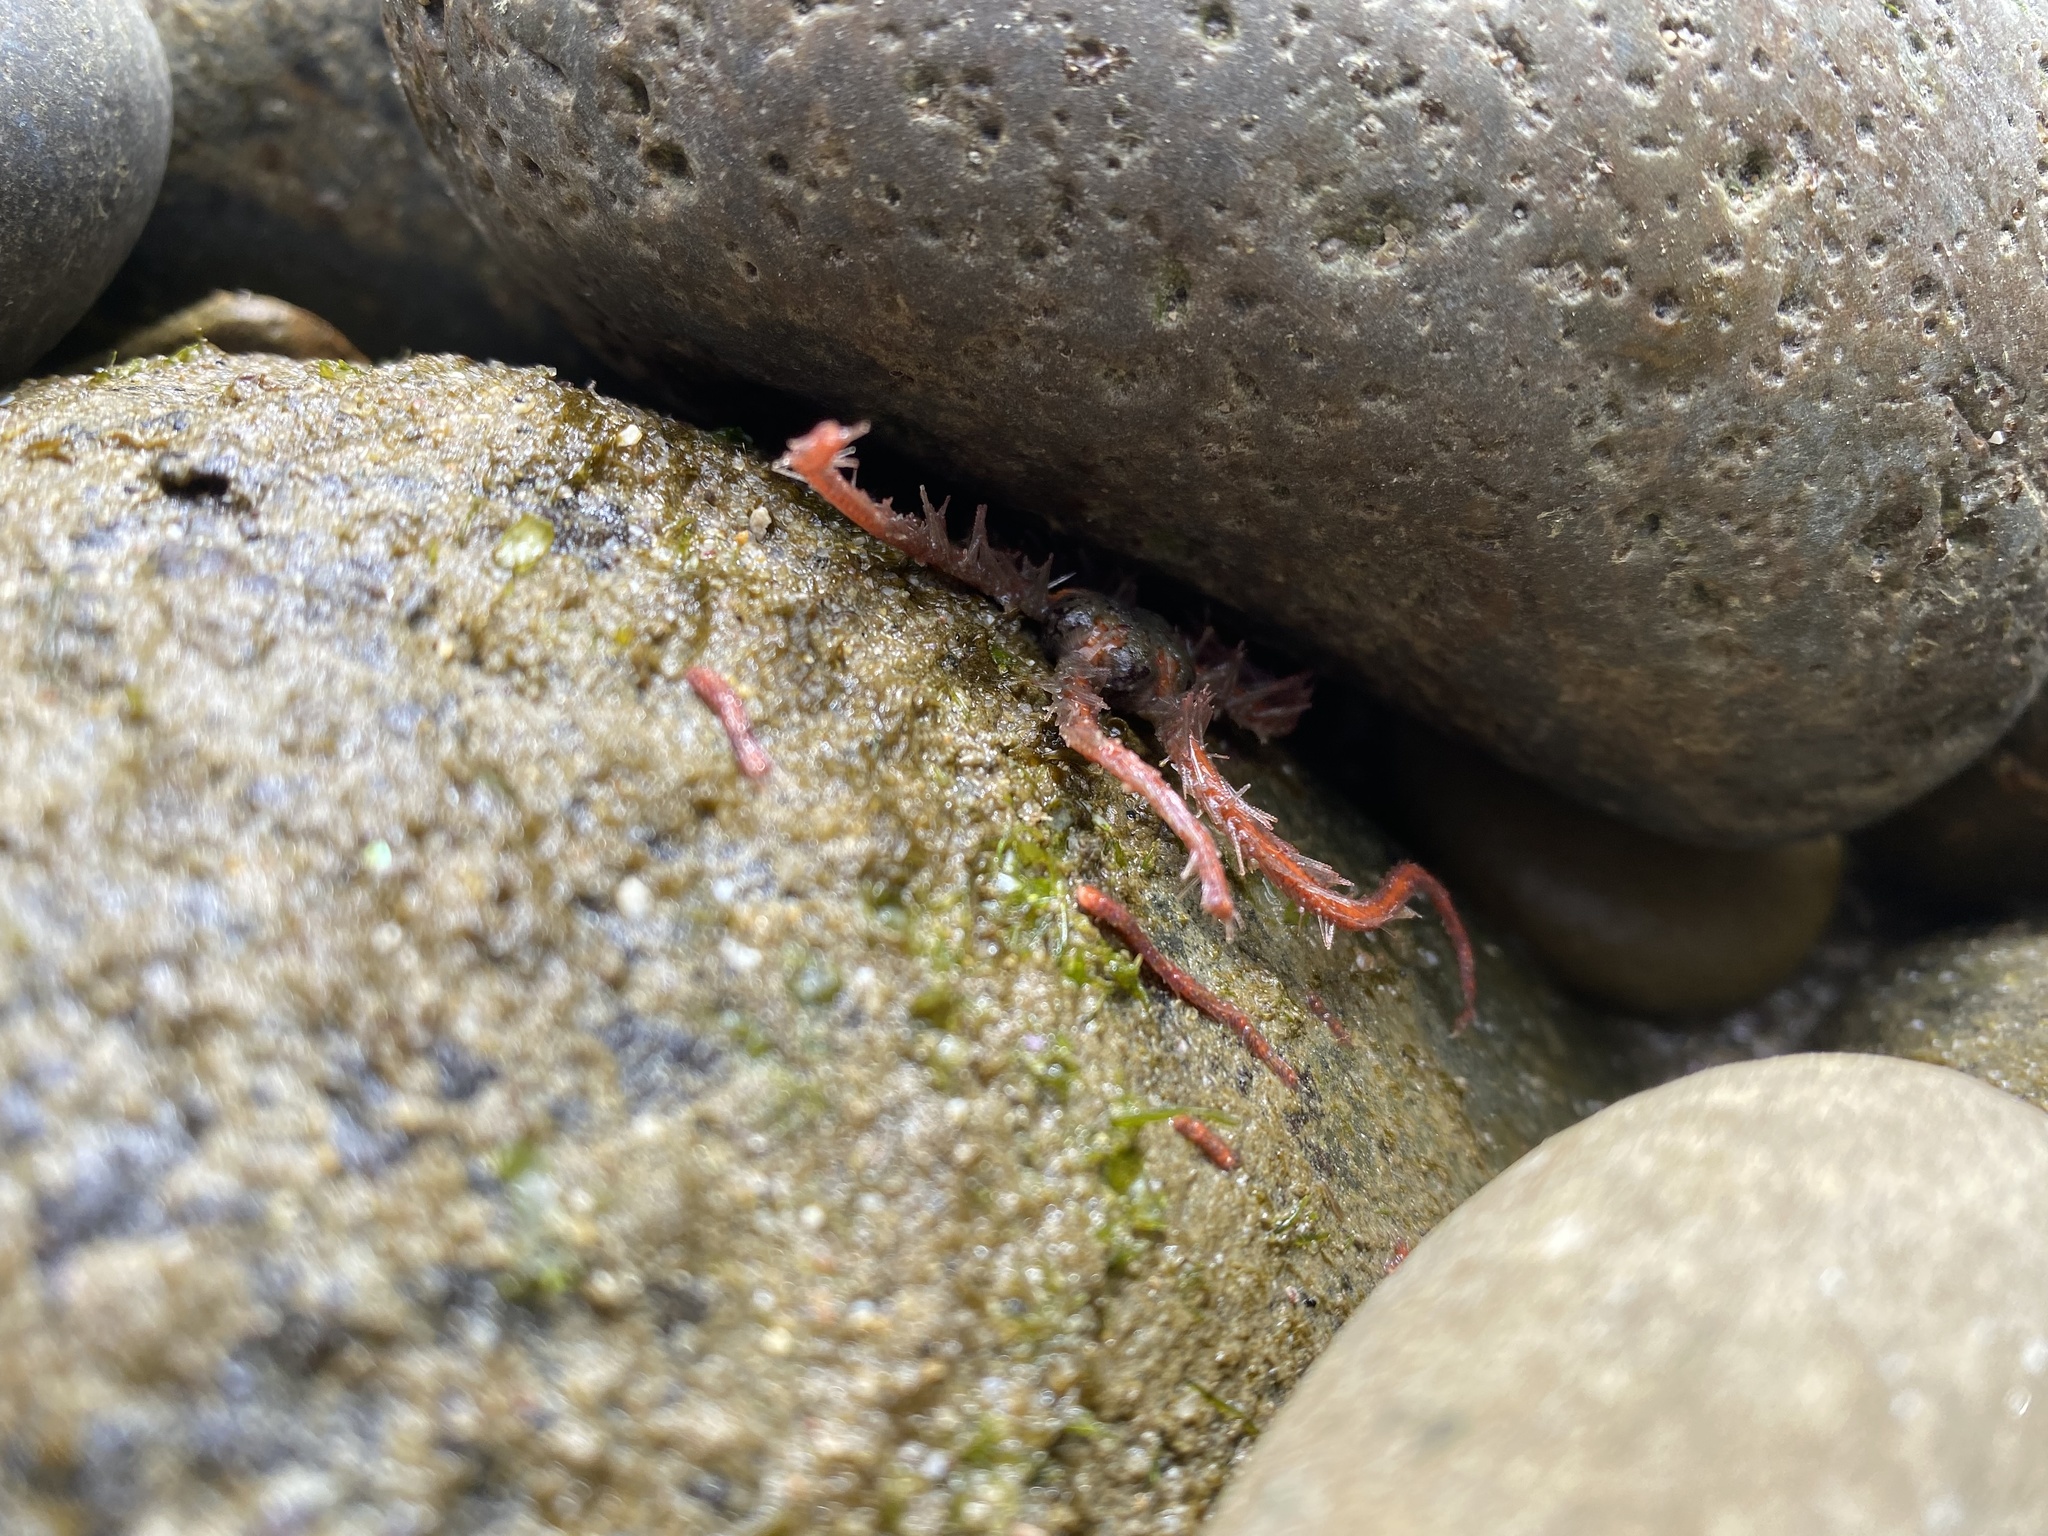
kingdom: Animalia
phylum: Echinodermata
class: Ophiuroidea
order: Amphilepidida
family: Ophiotrichidae
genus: Ophiothrix
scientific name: Ophiothrix spiculata
